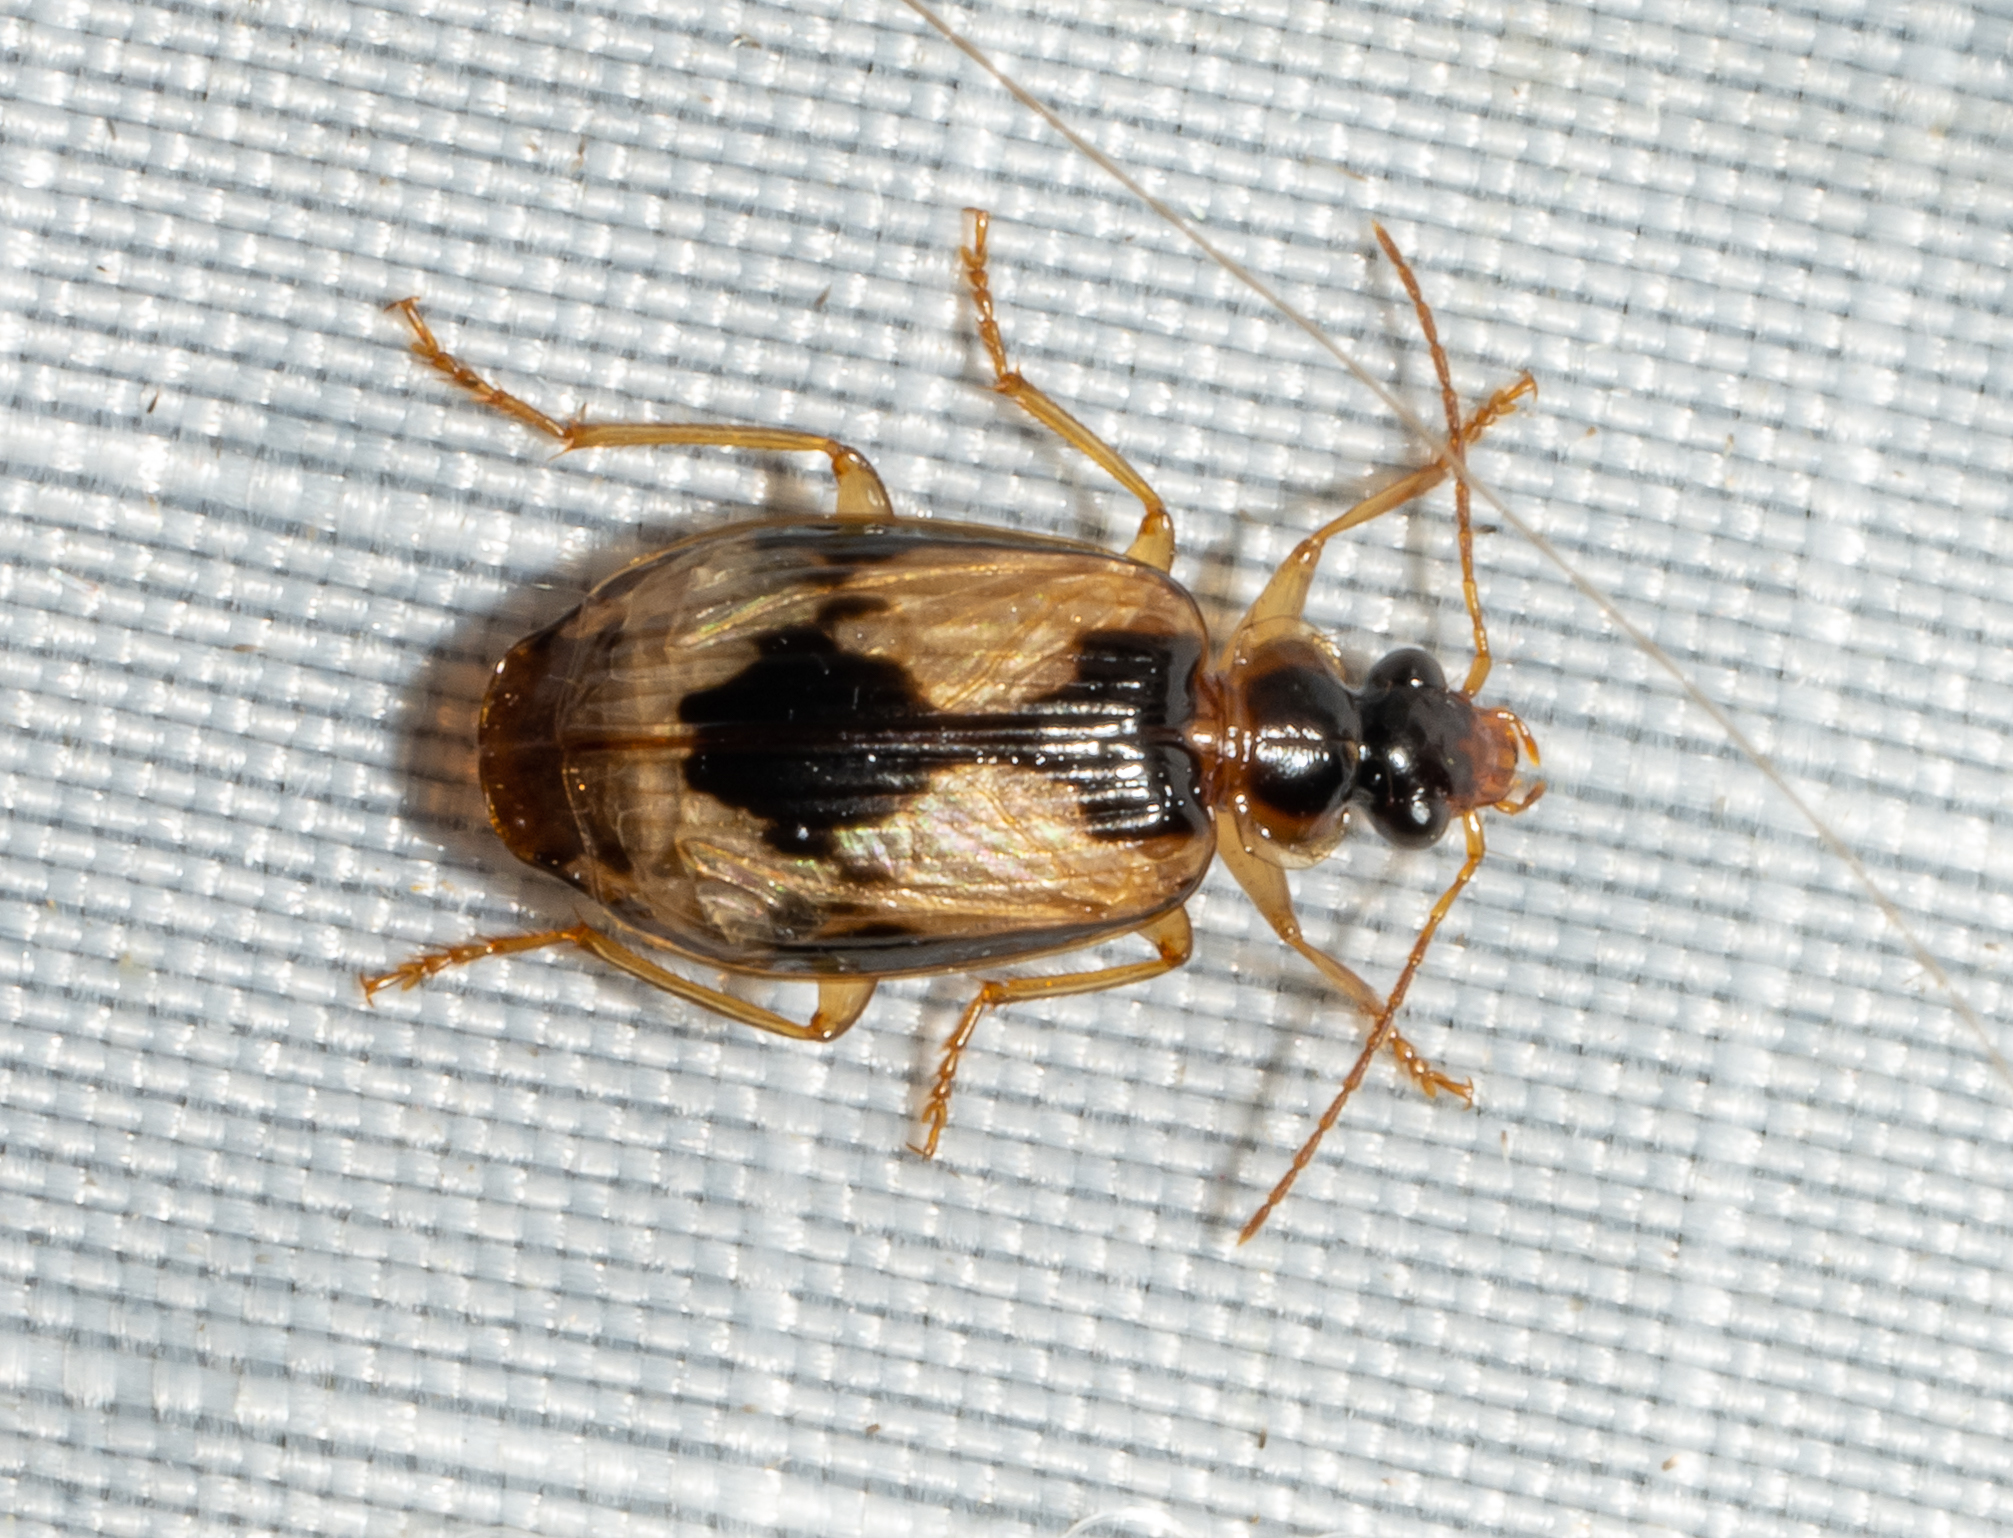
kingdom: Animalia
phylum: Arthropoda
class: Insecta
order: Coleoptera
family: Carabidae
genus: Lebia
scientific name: Lebia fuscata
